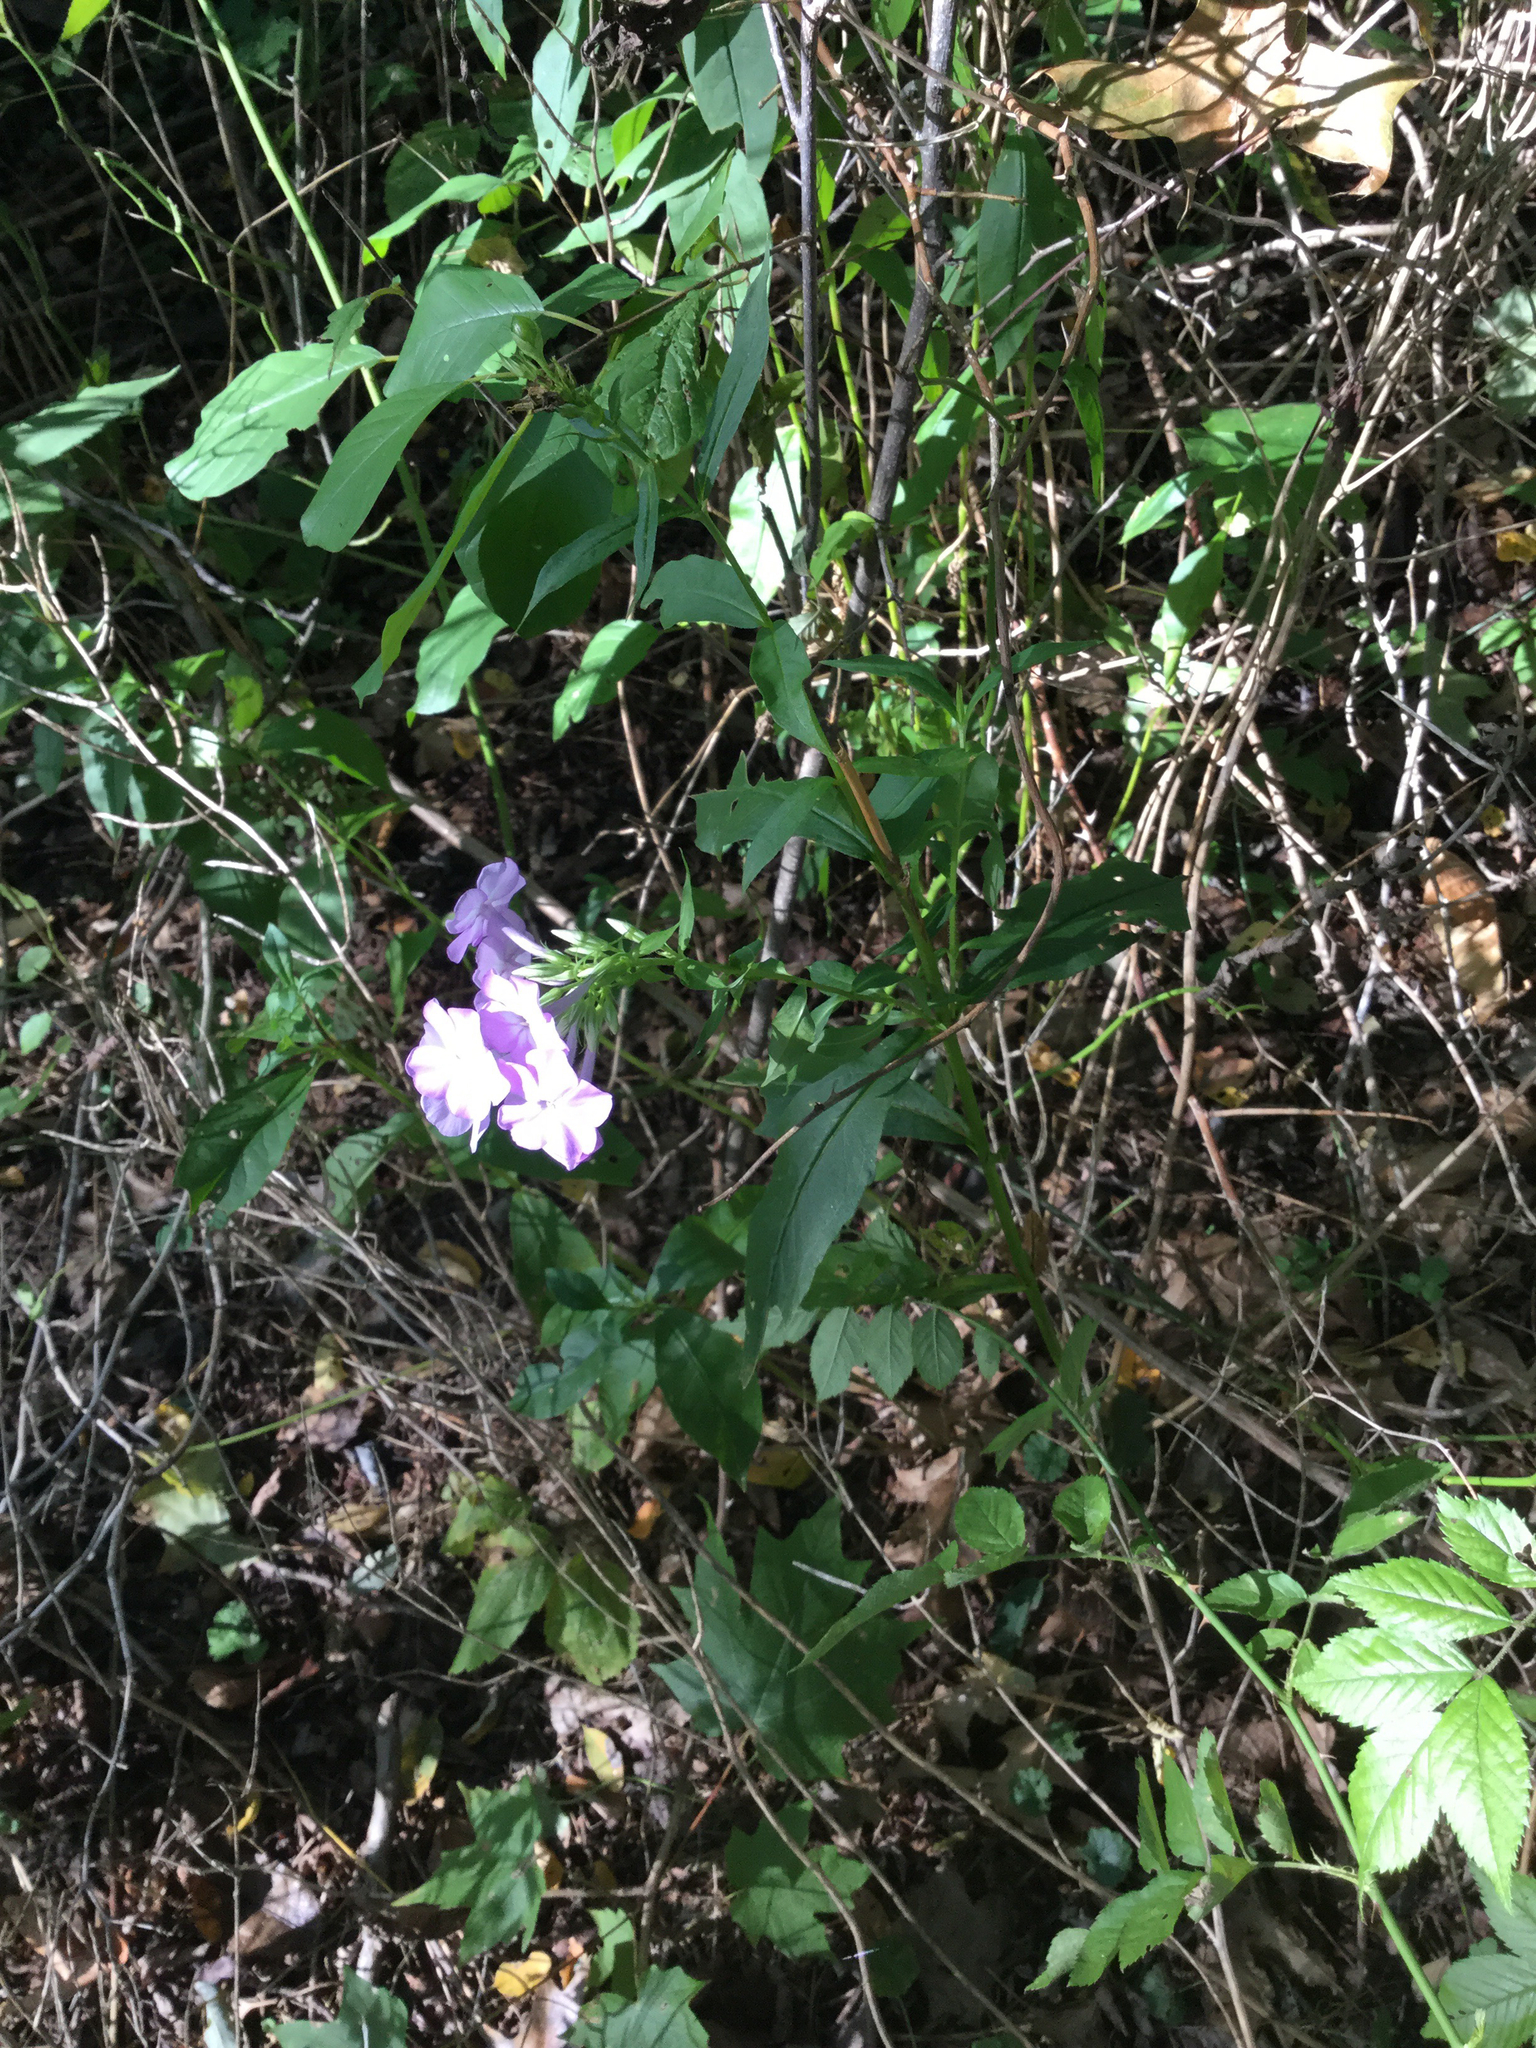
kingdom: Plantae
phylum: Tracheophyta
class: Magnoliopsida
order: Ericales
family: Polemoniaceae
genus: Phlox
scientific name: Phlox paniculata
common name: Fall phlox
